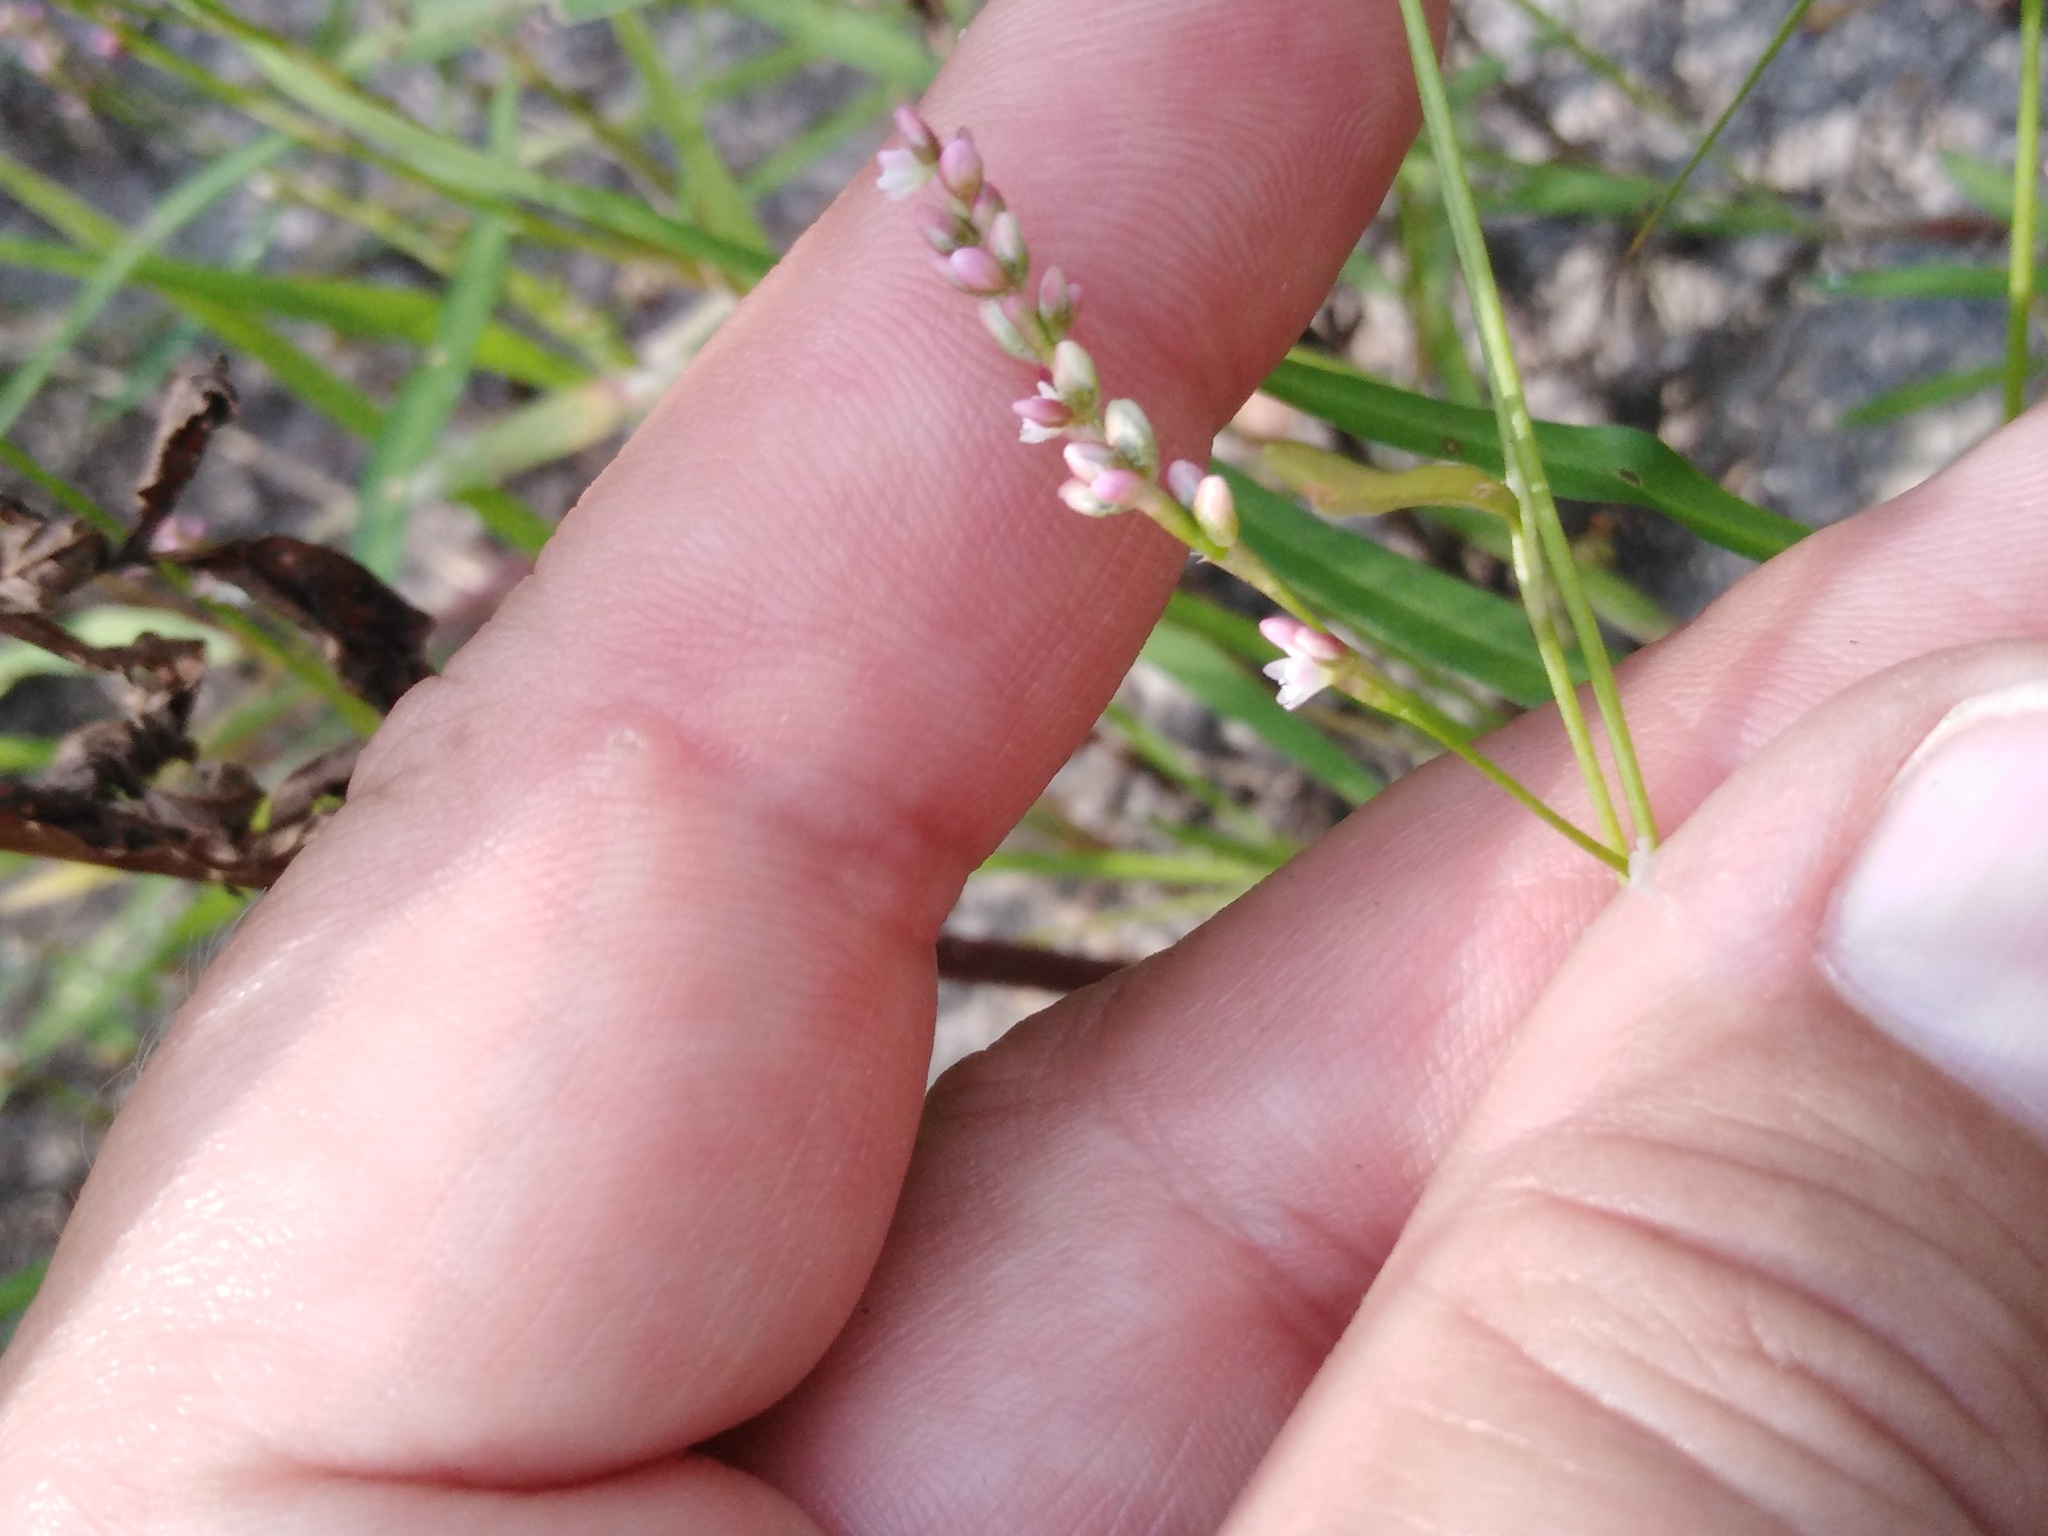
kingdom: Plantae
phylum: Tracheophyta
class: Magnoliopsida
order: Caryophyllales
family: Polygonaceae
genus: Persicaria
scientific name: Persicaria minor
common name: Small water-pepper
